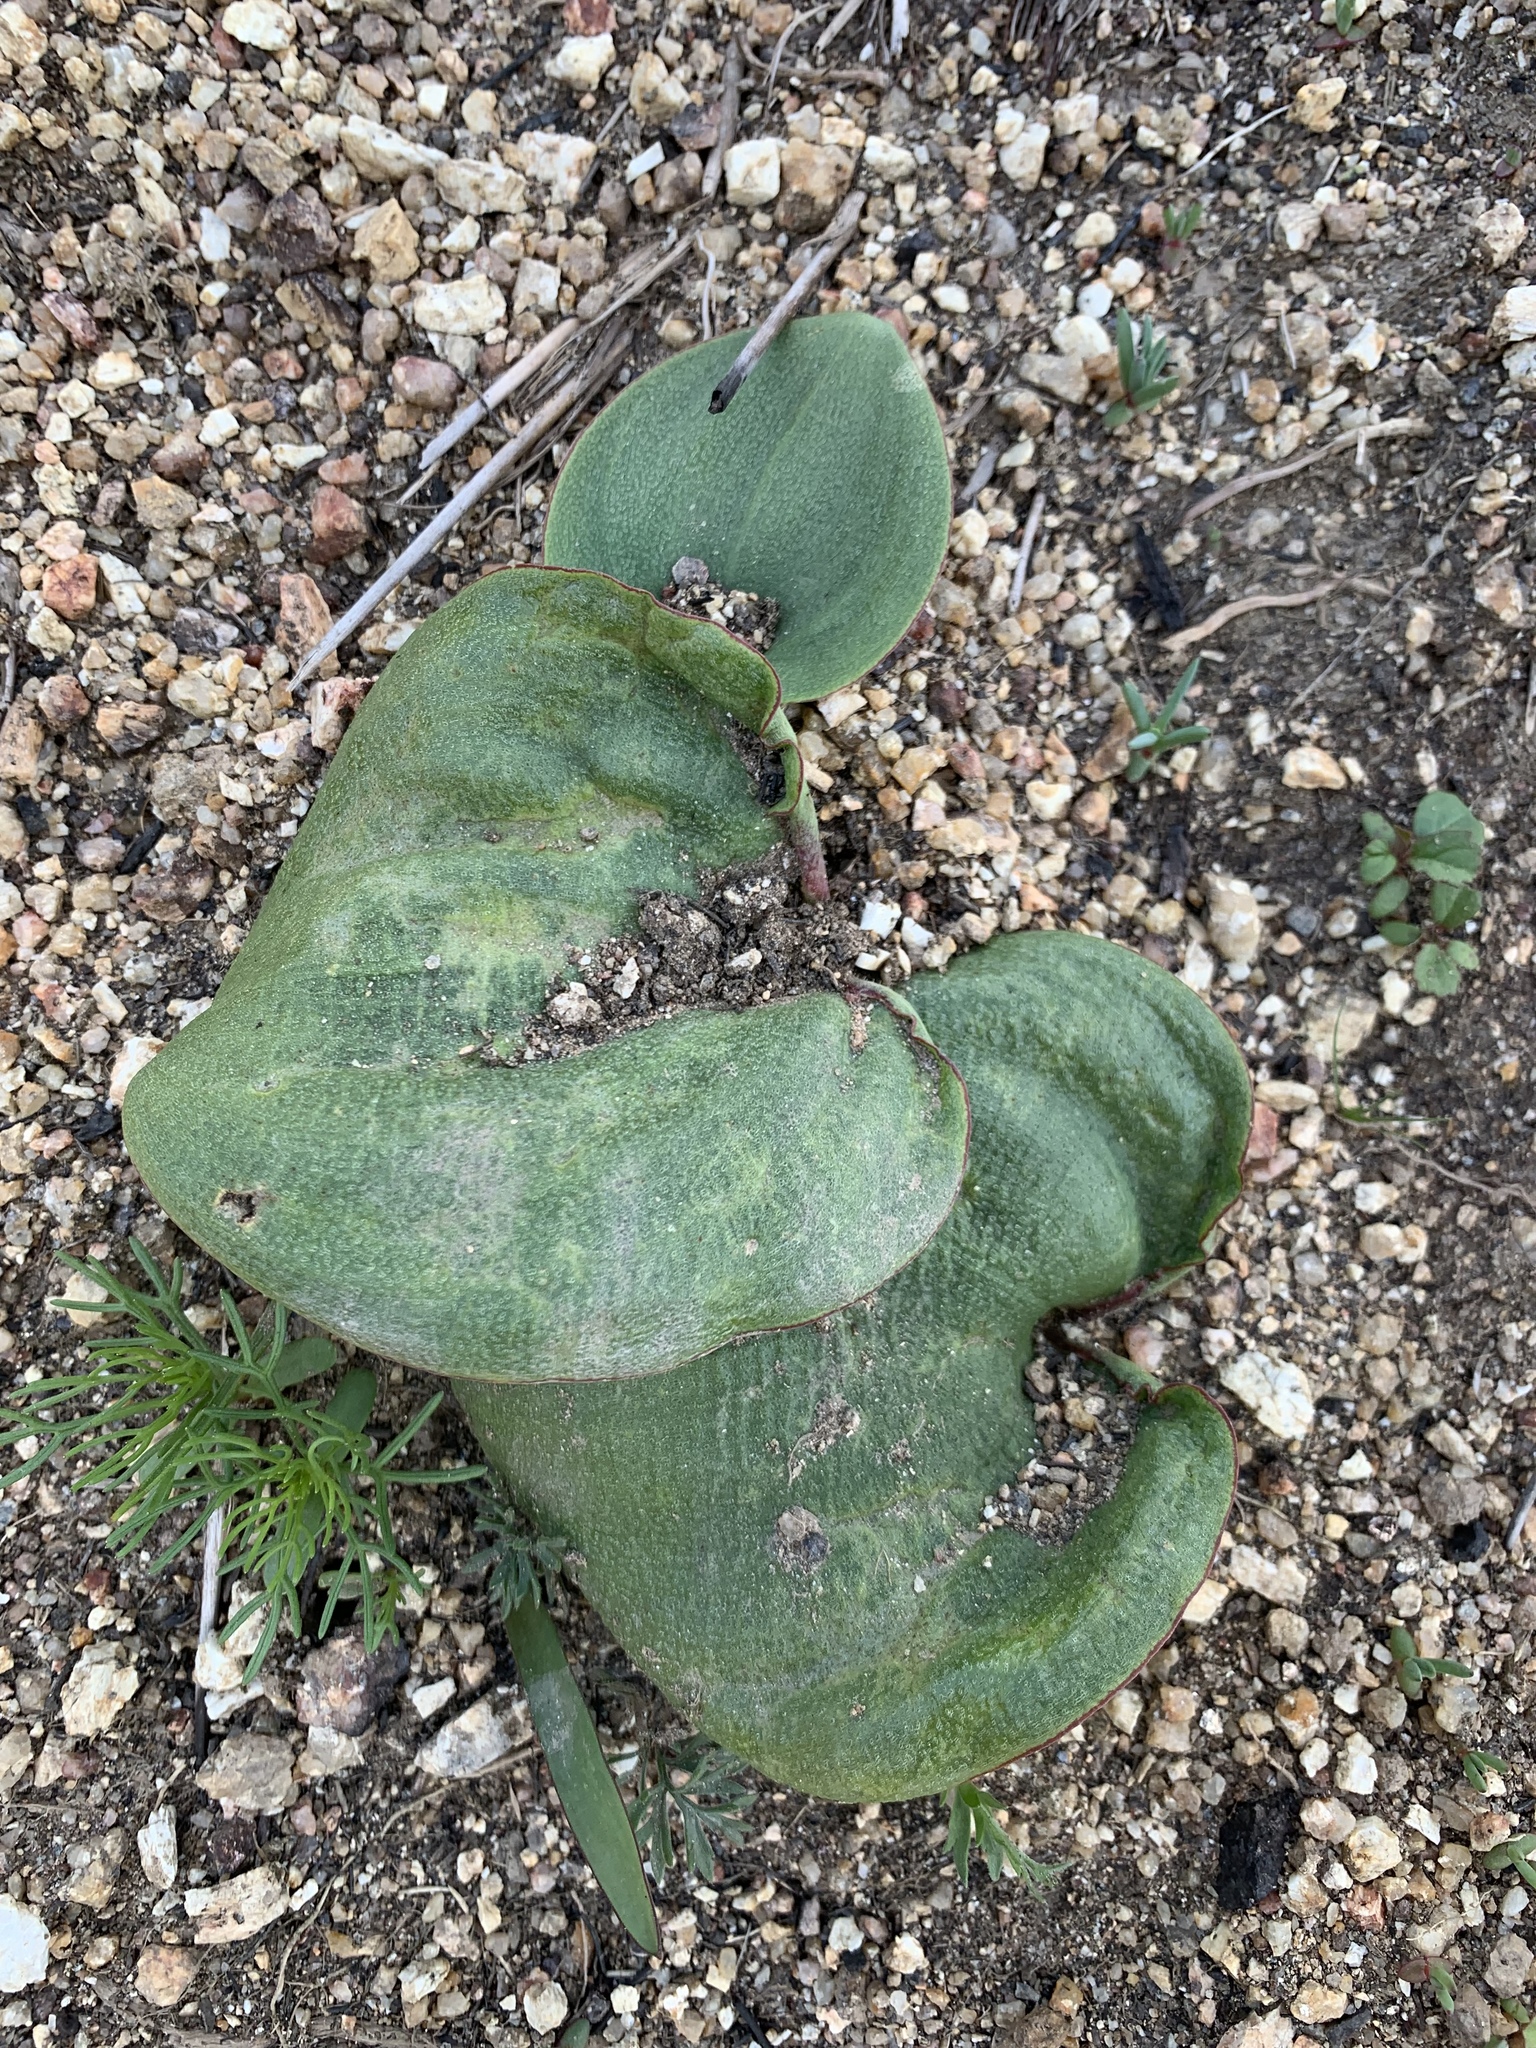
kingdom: Plantae
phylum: Tracheophyta
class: Liliopsida
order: Asparagales
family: Asparagaceae
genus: Eriospermum
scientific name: Eriospermum capense
